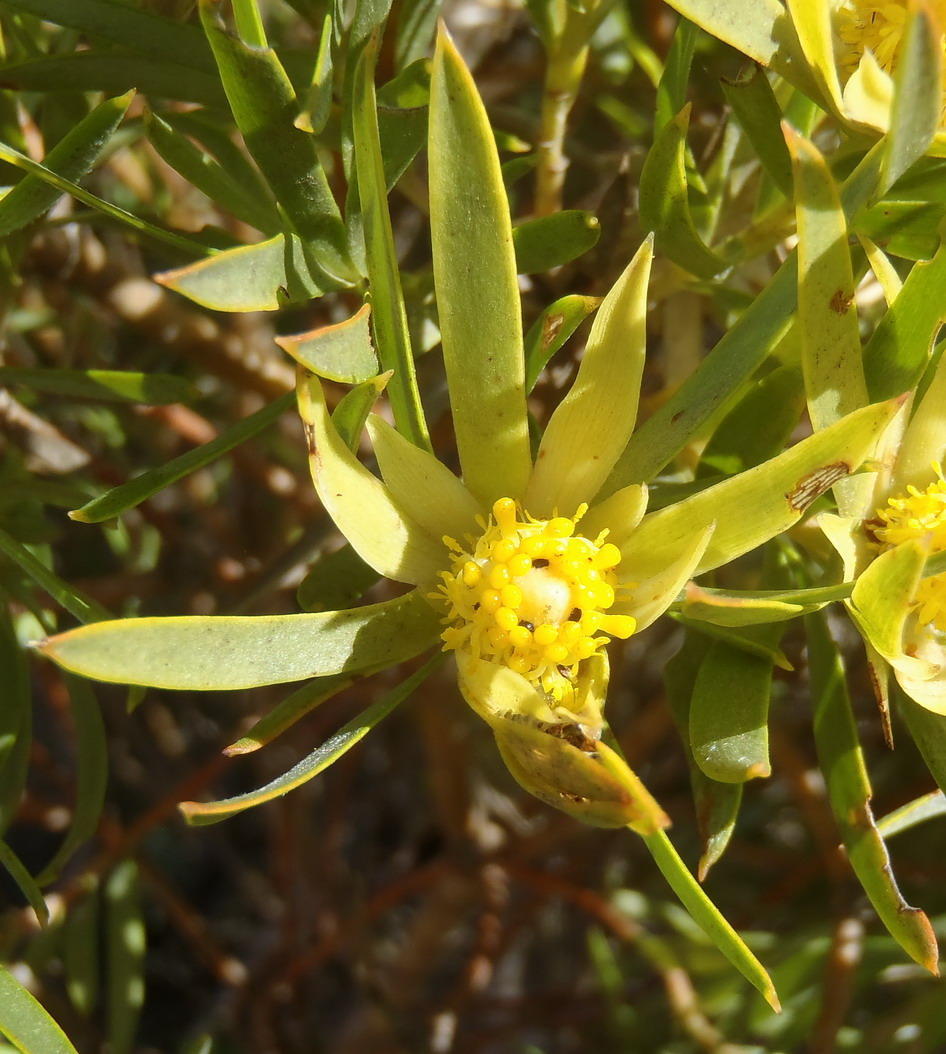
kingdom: Plantae
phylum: Tracheophyta
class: Magnoliopsida
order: Proteales
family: Proteaceae
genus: Leucadendron
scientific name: Leucadendron xanthoconus
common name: Sickle-leaf conebush
